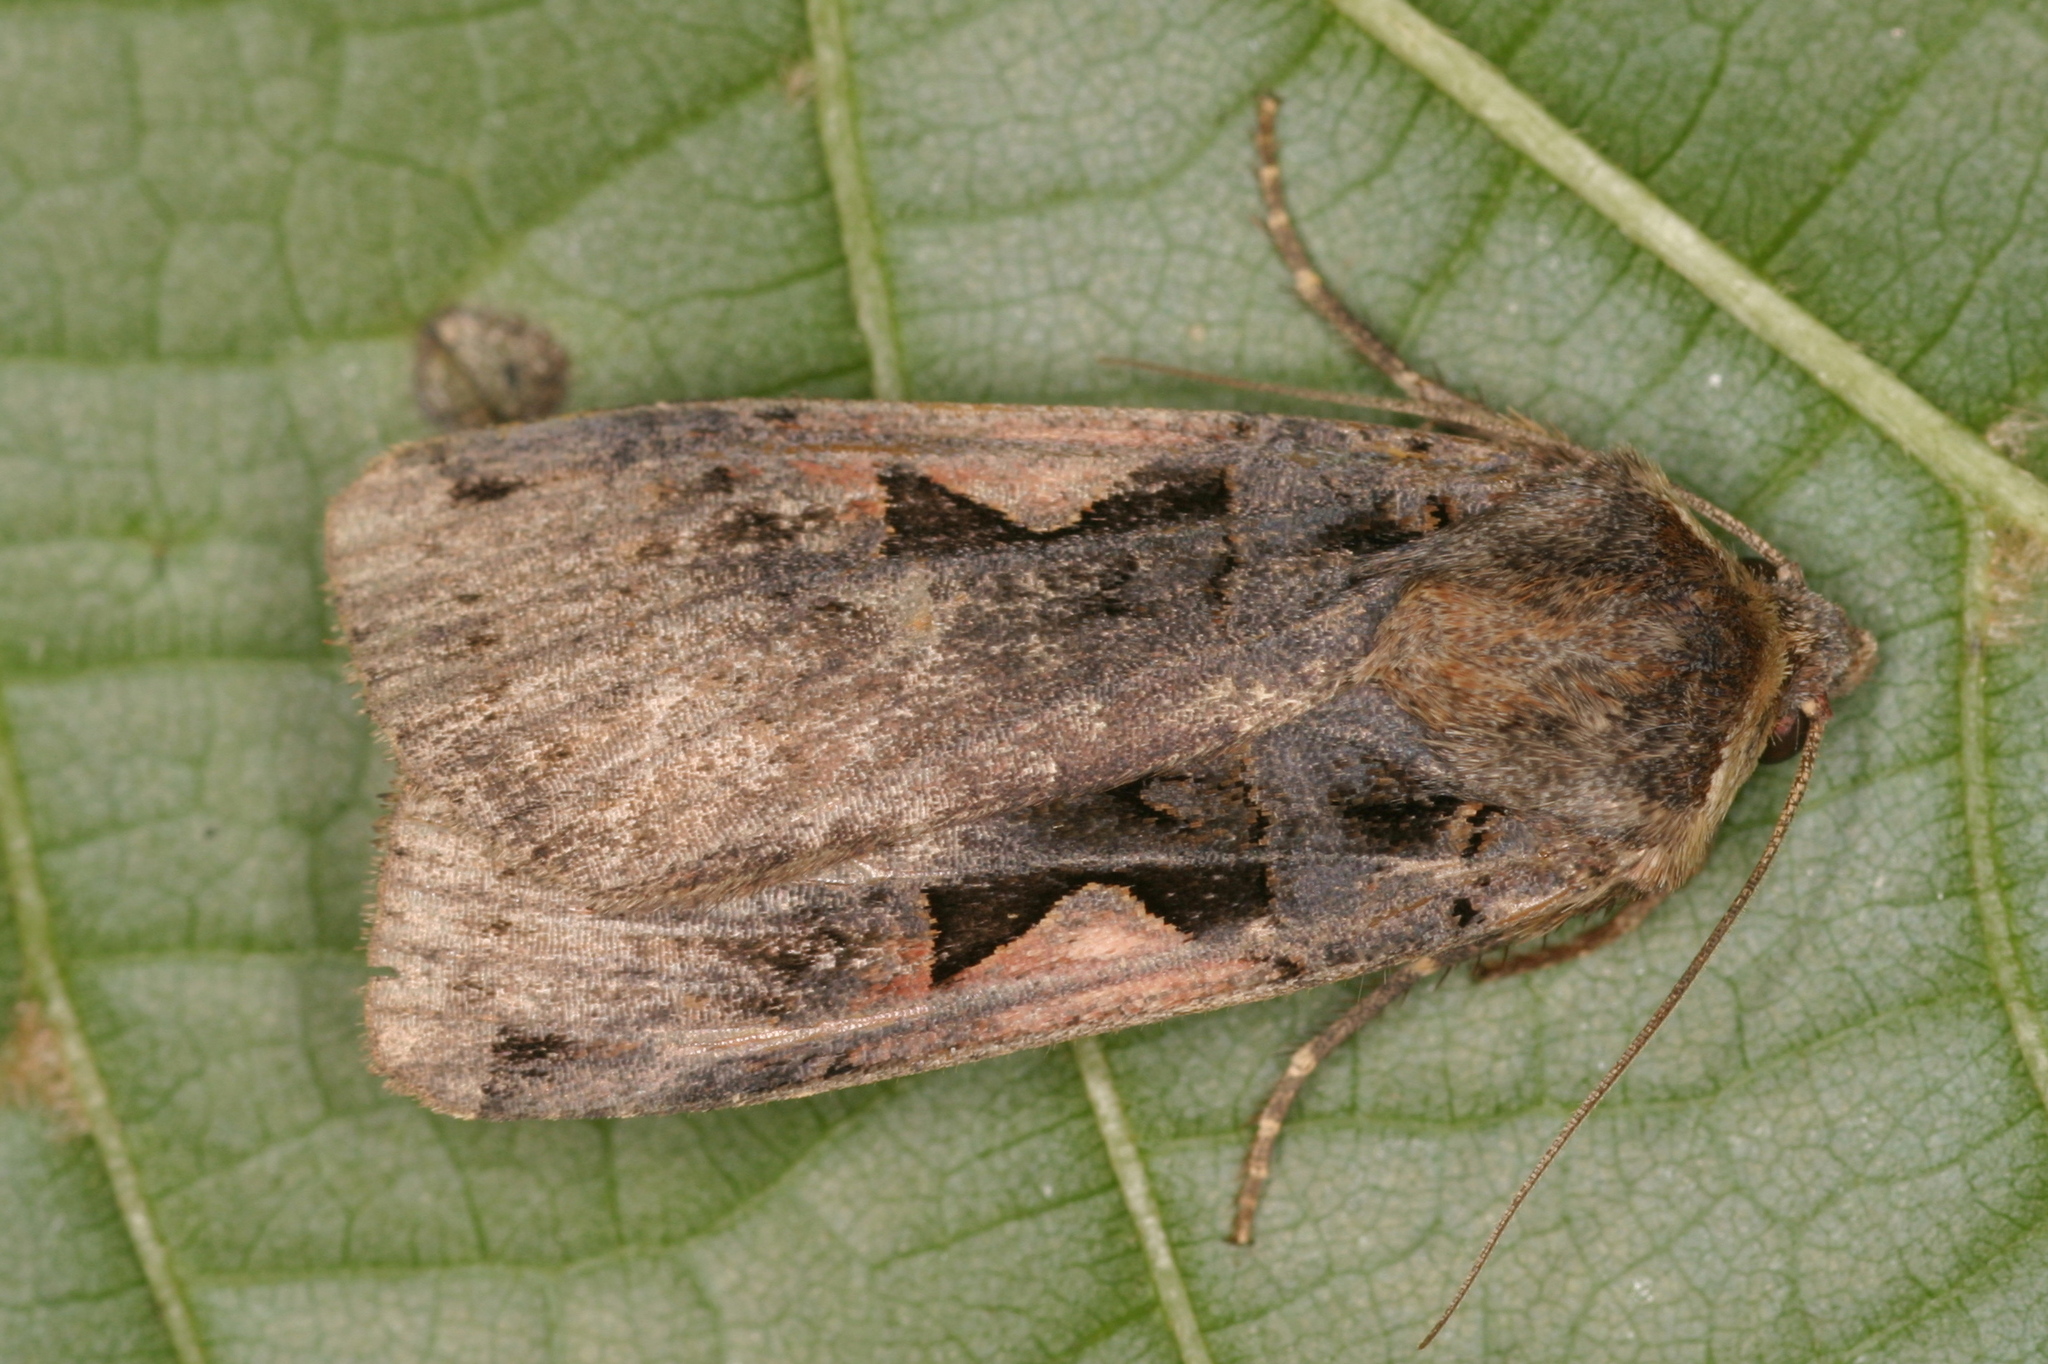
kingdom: Animalia
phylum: Arthropoda
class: Insecta
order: Lepidoptera
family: Noctuidae
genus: Xestia
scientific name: Xestia c-nigrum
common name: Setaceous hebrew character
